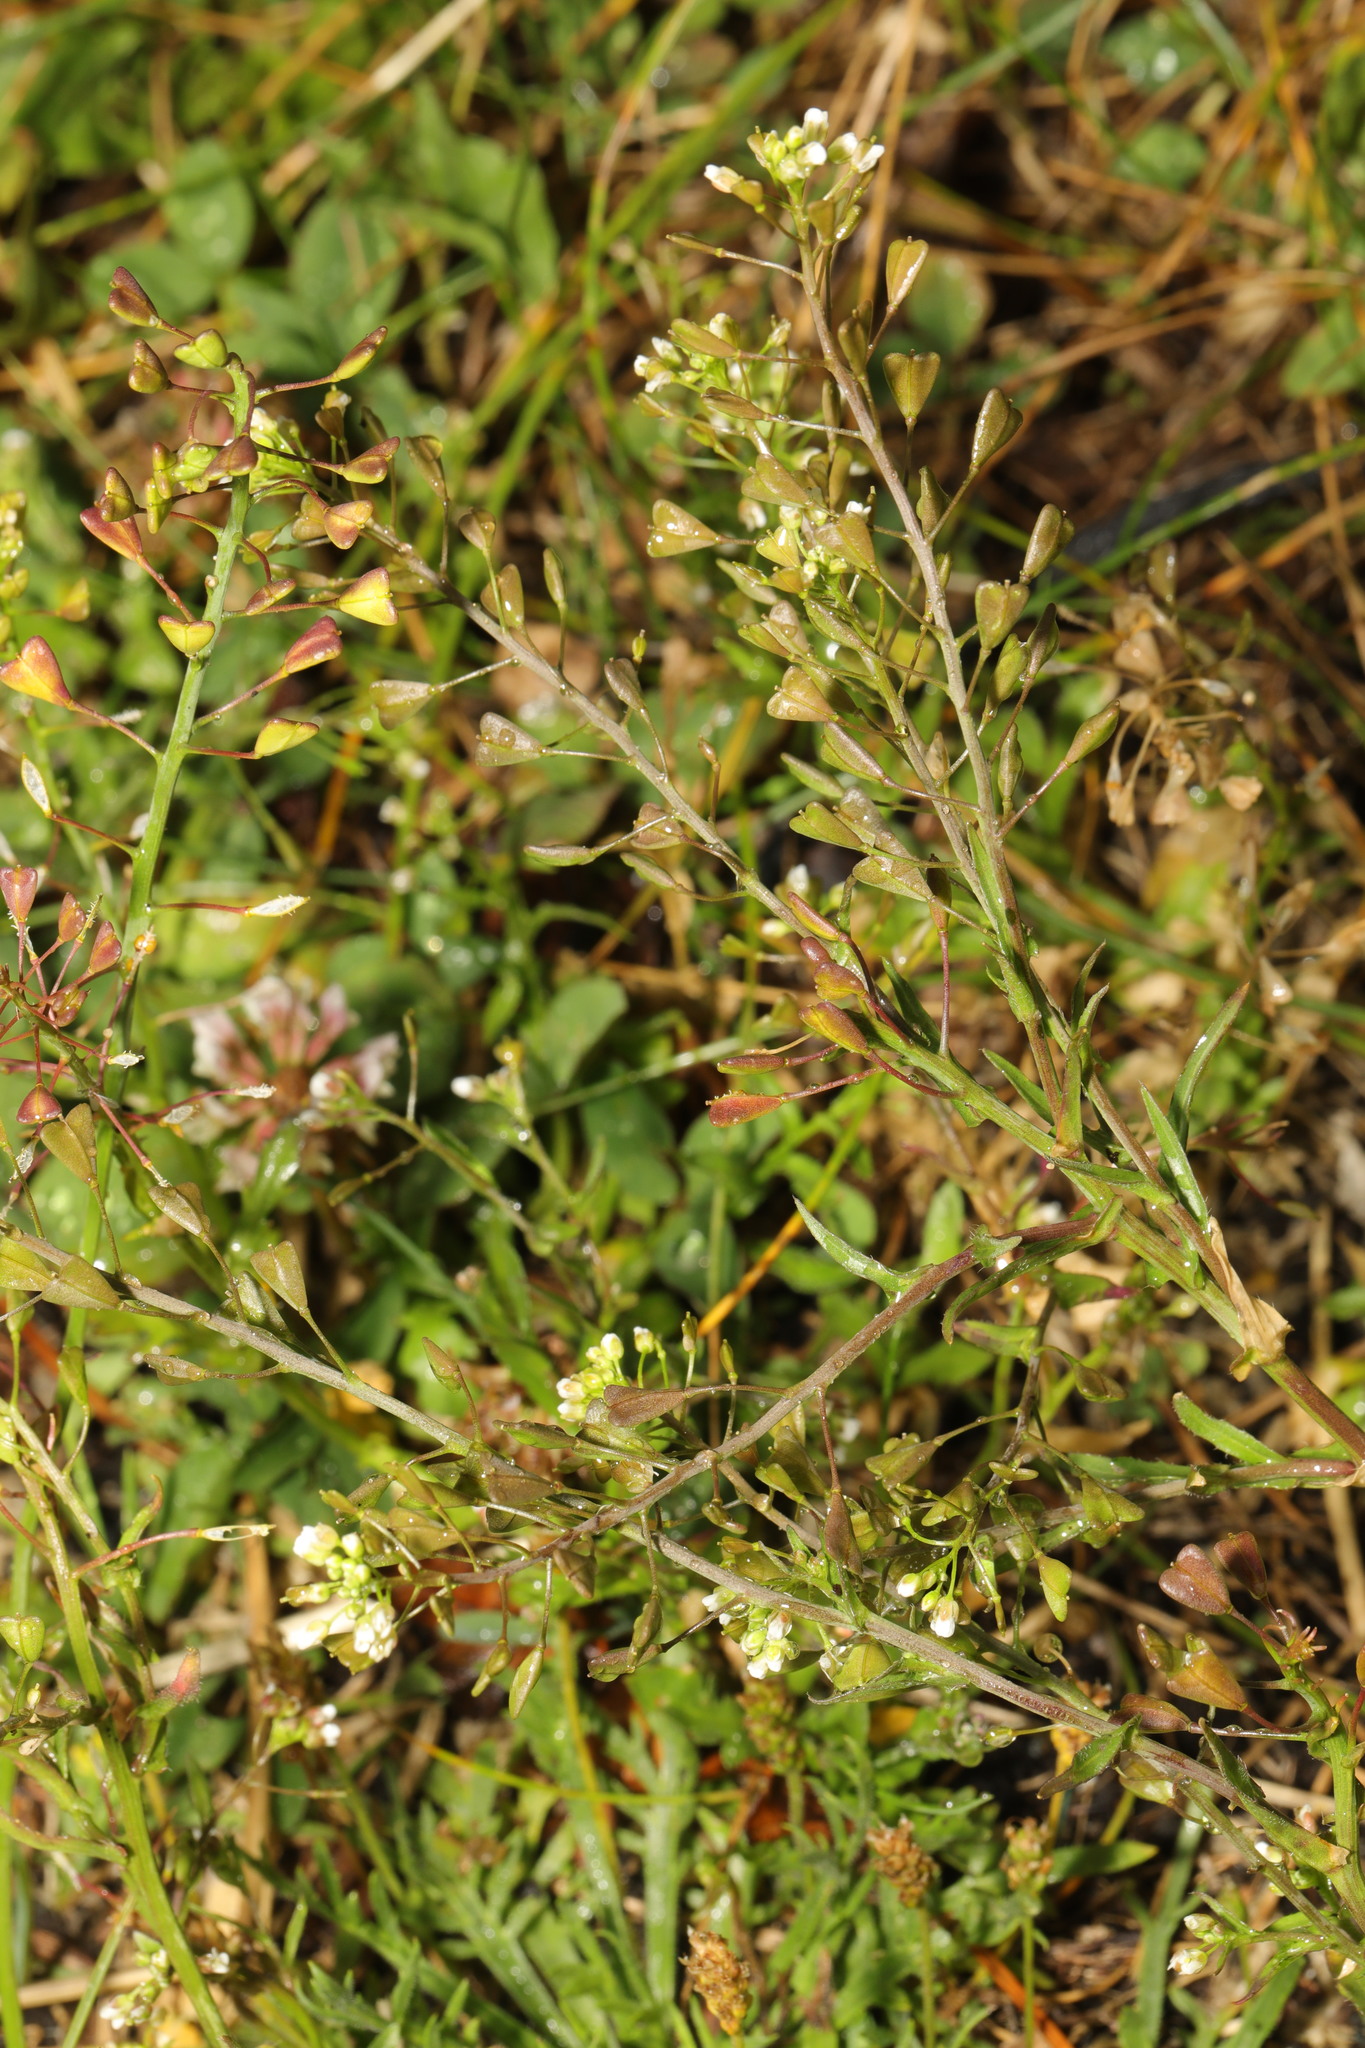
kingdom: Plantae
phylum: Tracheophyta
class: Magnoliopsida
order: Brassicales
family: Brassicaceae
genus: Capsella
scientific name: Capsella bursa-pastoris
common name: Shepherd's purse
